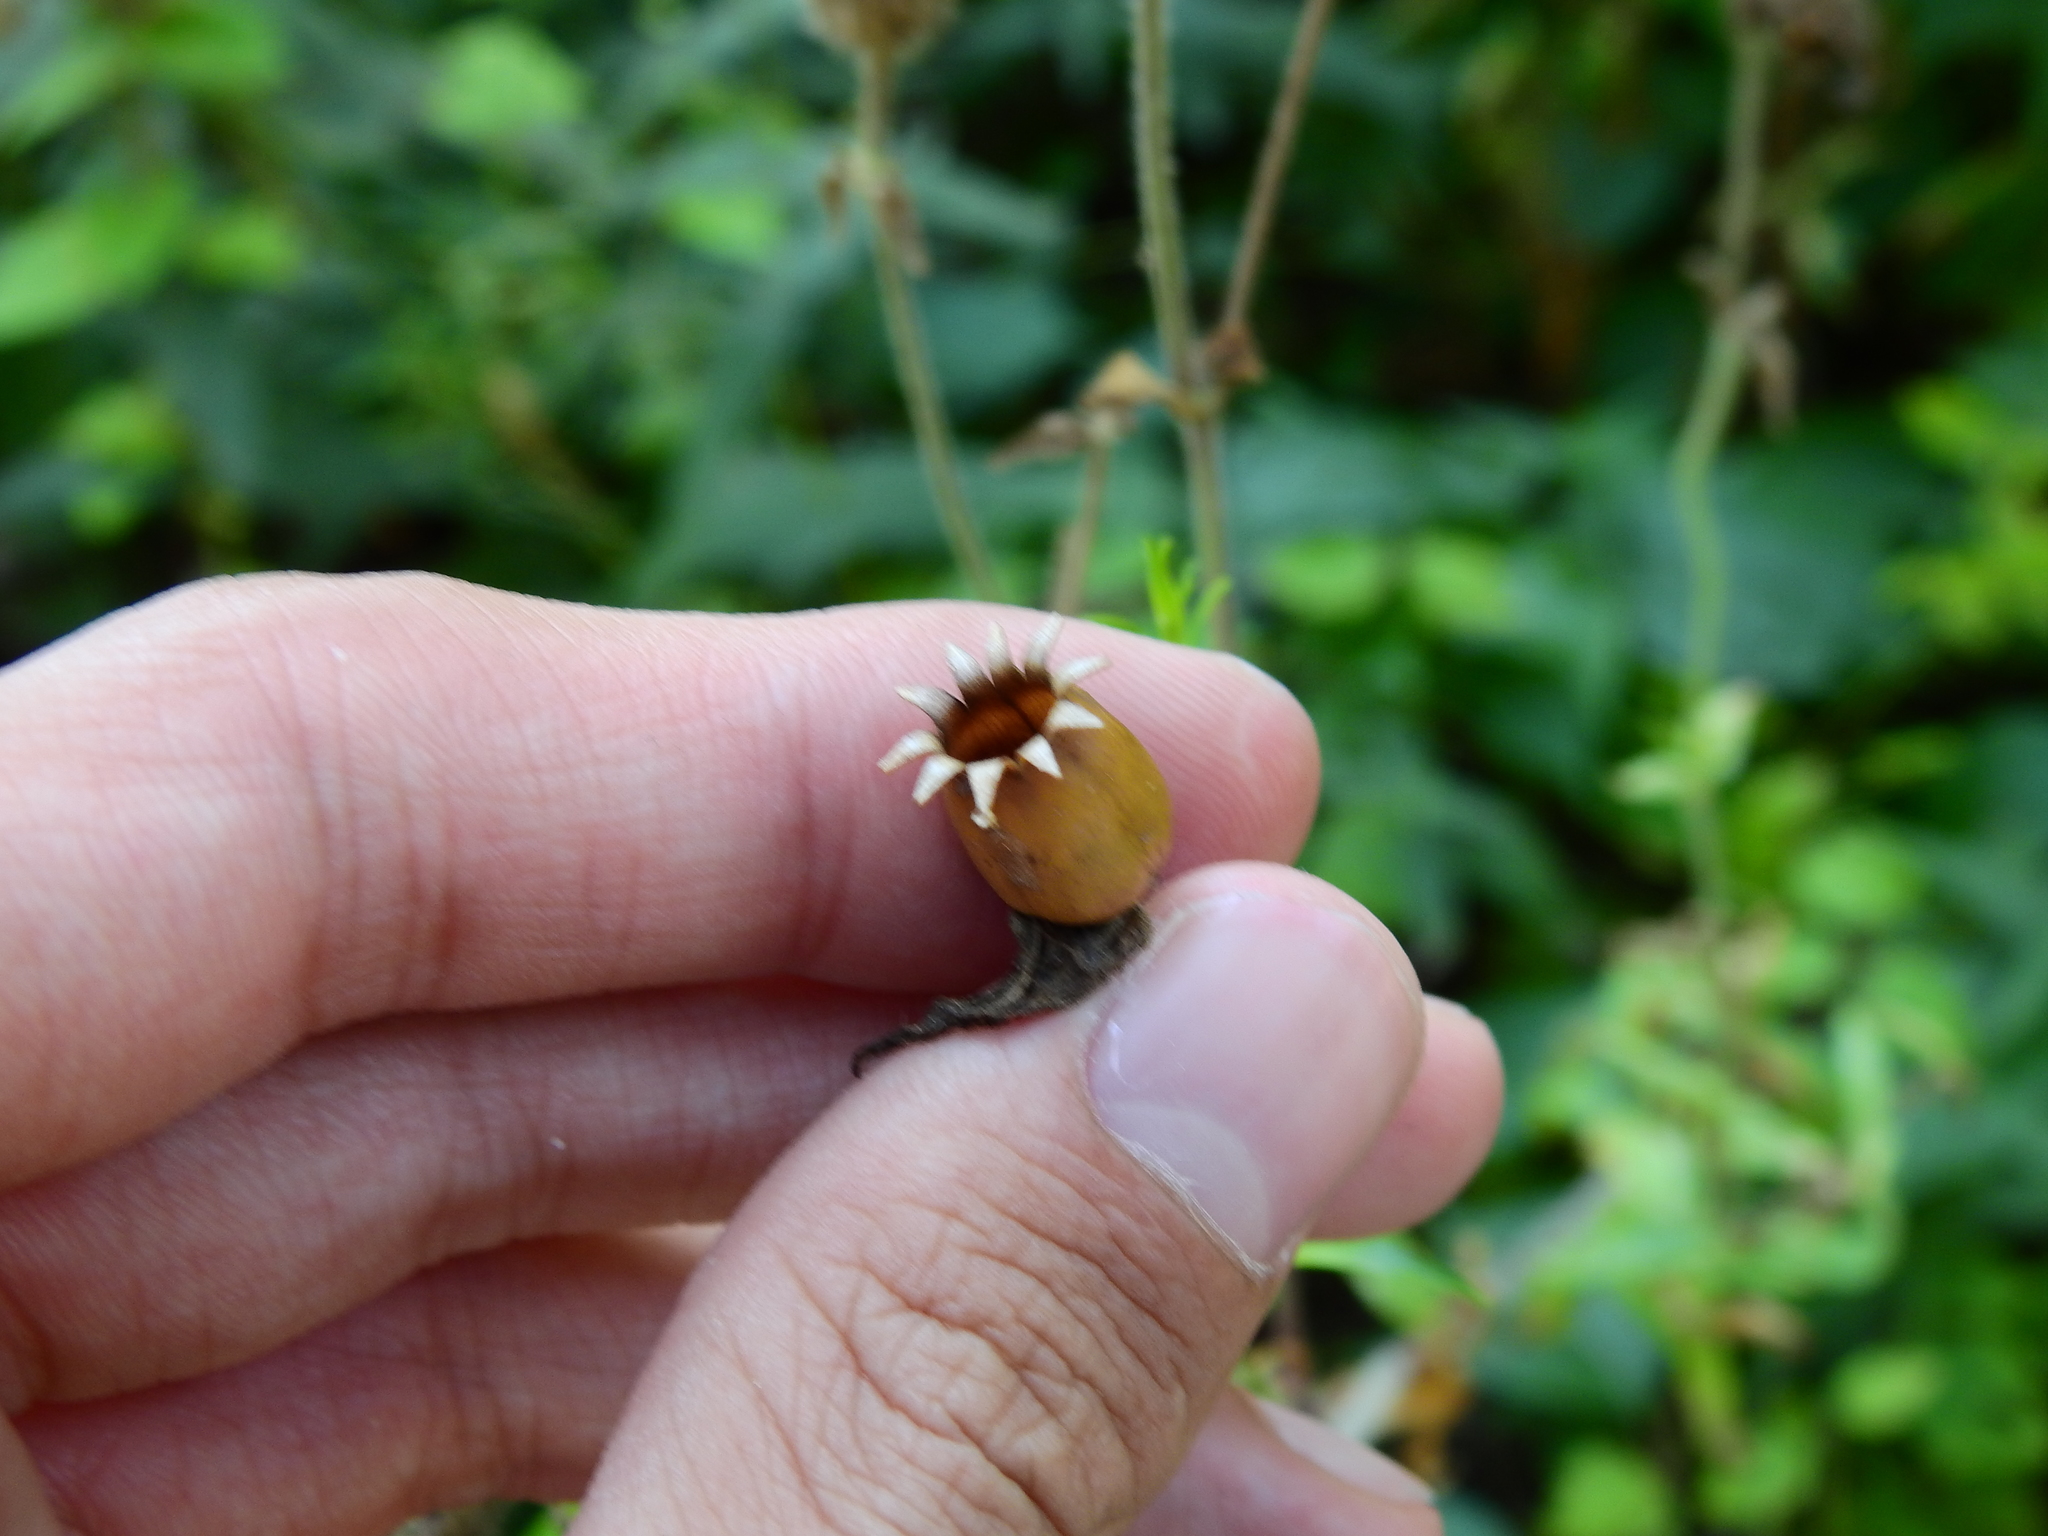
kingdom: Plantae
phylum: Tracheophyta
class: Magnoliopsida
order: Caryophyllales
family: Caryophyllaceae
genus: Silene
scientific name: Silene latifolia
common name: White campion
